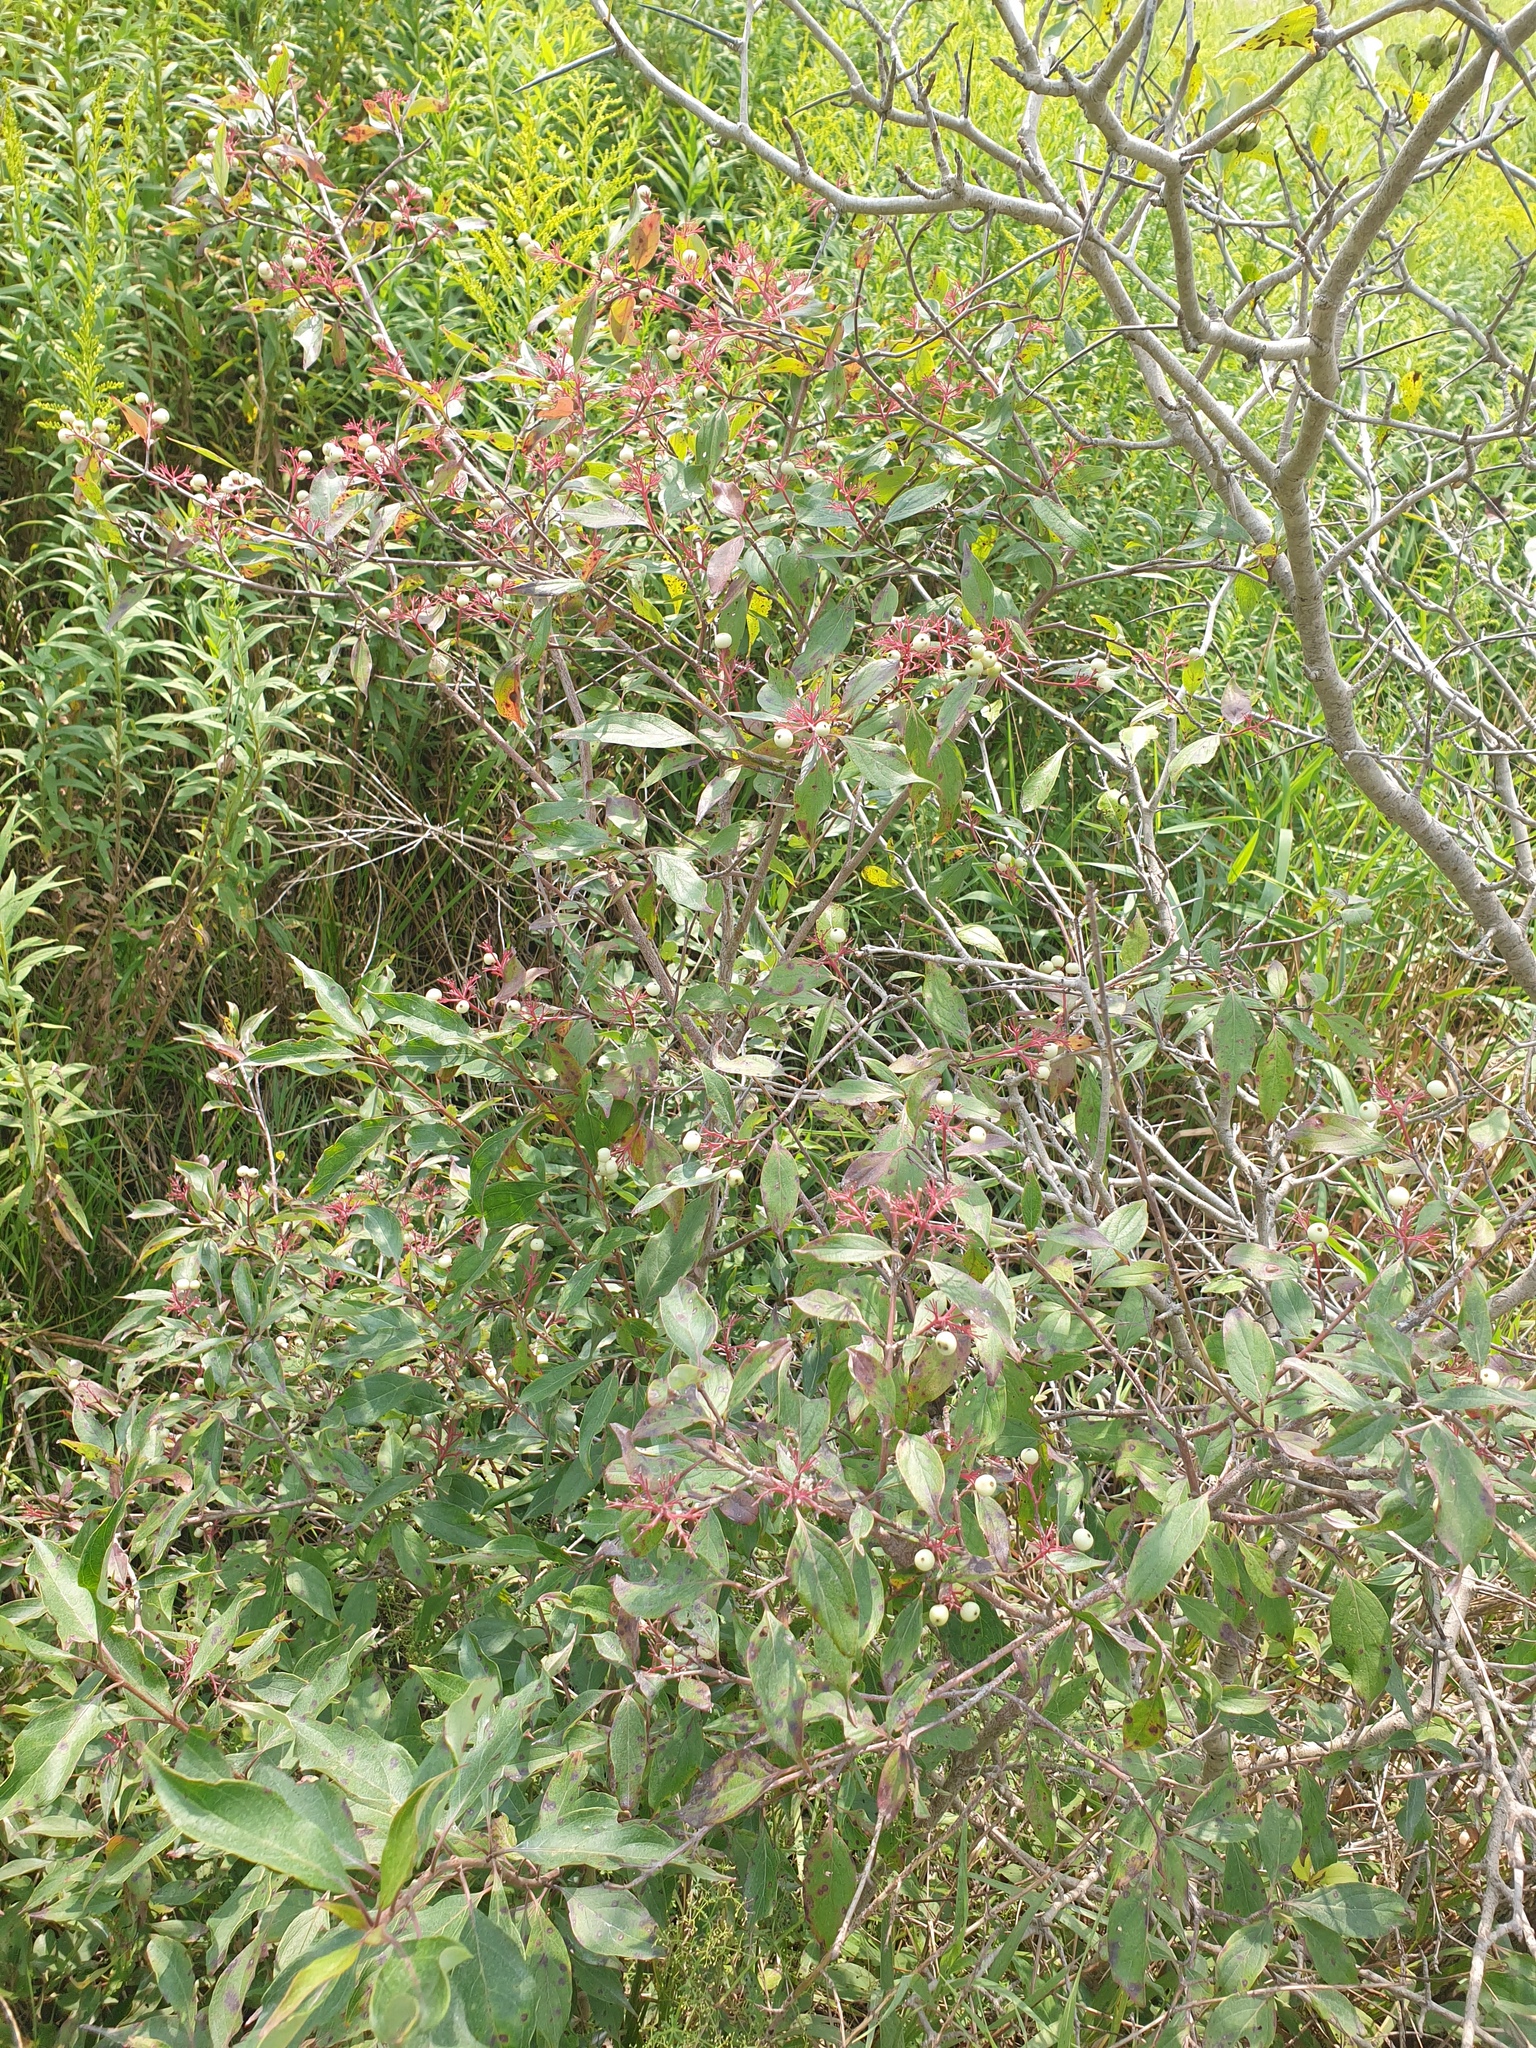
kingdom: Plantae
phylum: Tracheophyta
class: Magnoliopsida
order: Cornales
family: Cornaceae
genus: Cornus
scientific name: Cornus racemosa
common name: Panicled dogwood
